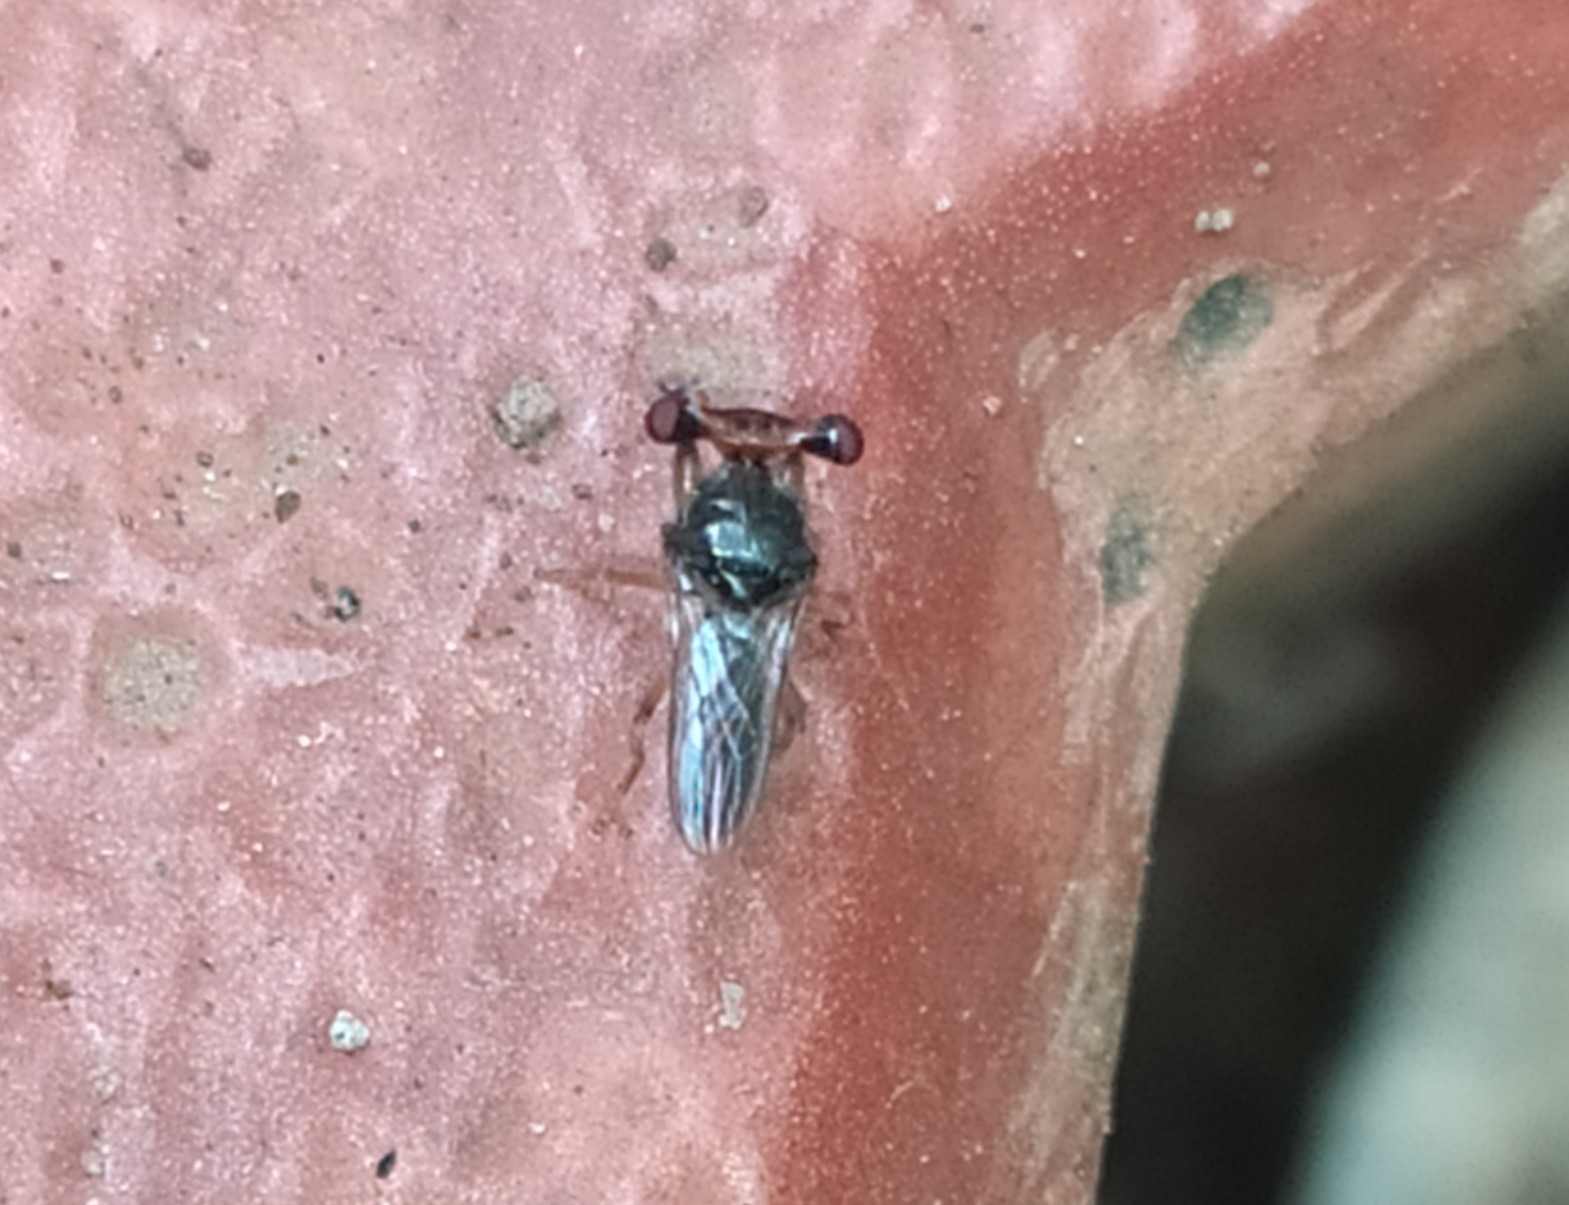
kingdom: Animalia
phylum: Arthropoda
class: Insecta
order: Diptera
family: Diopsidae
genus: Sphyracephala
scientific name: Sphyracephala hearseiana
